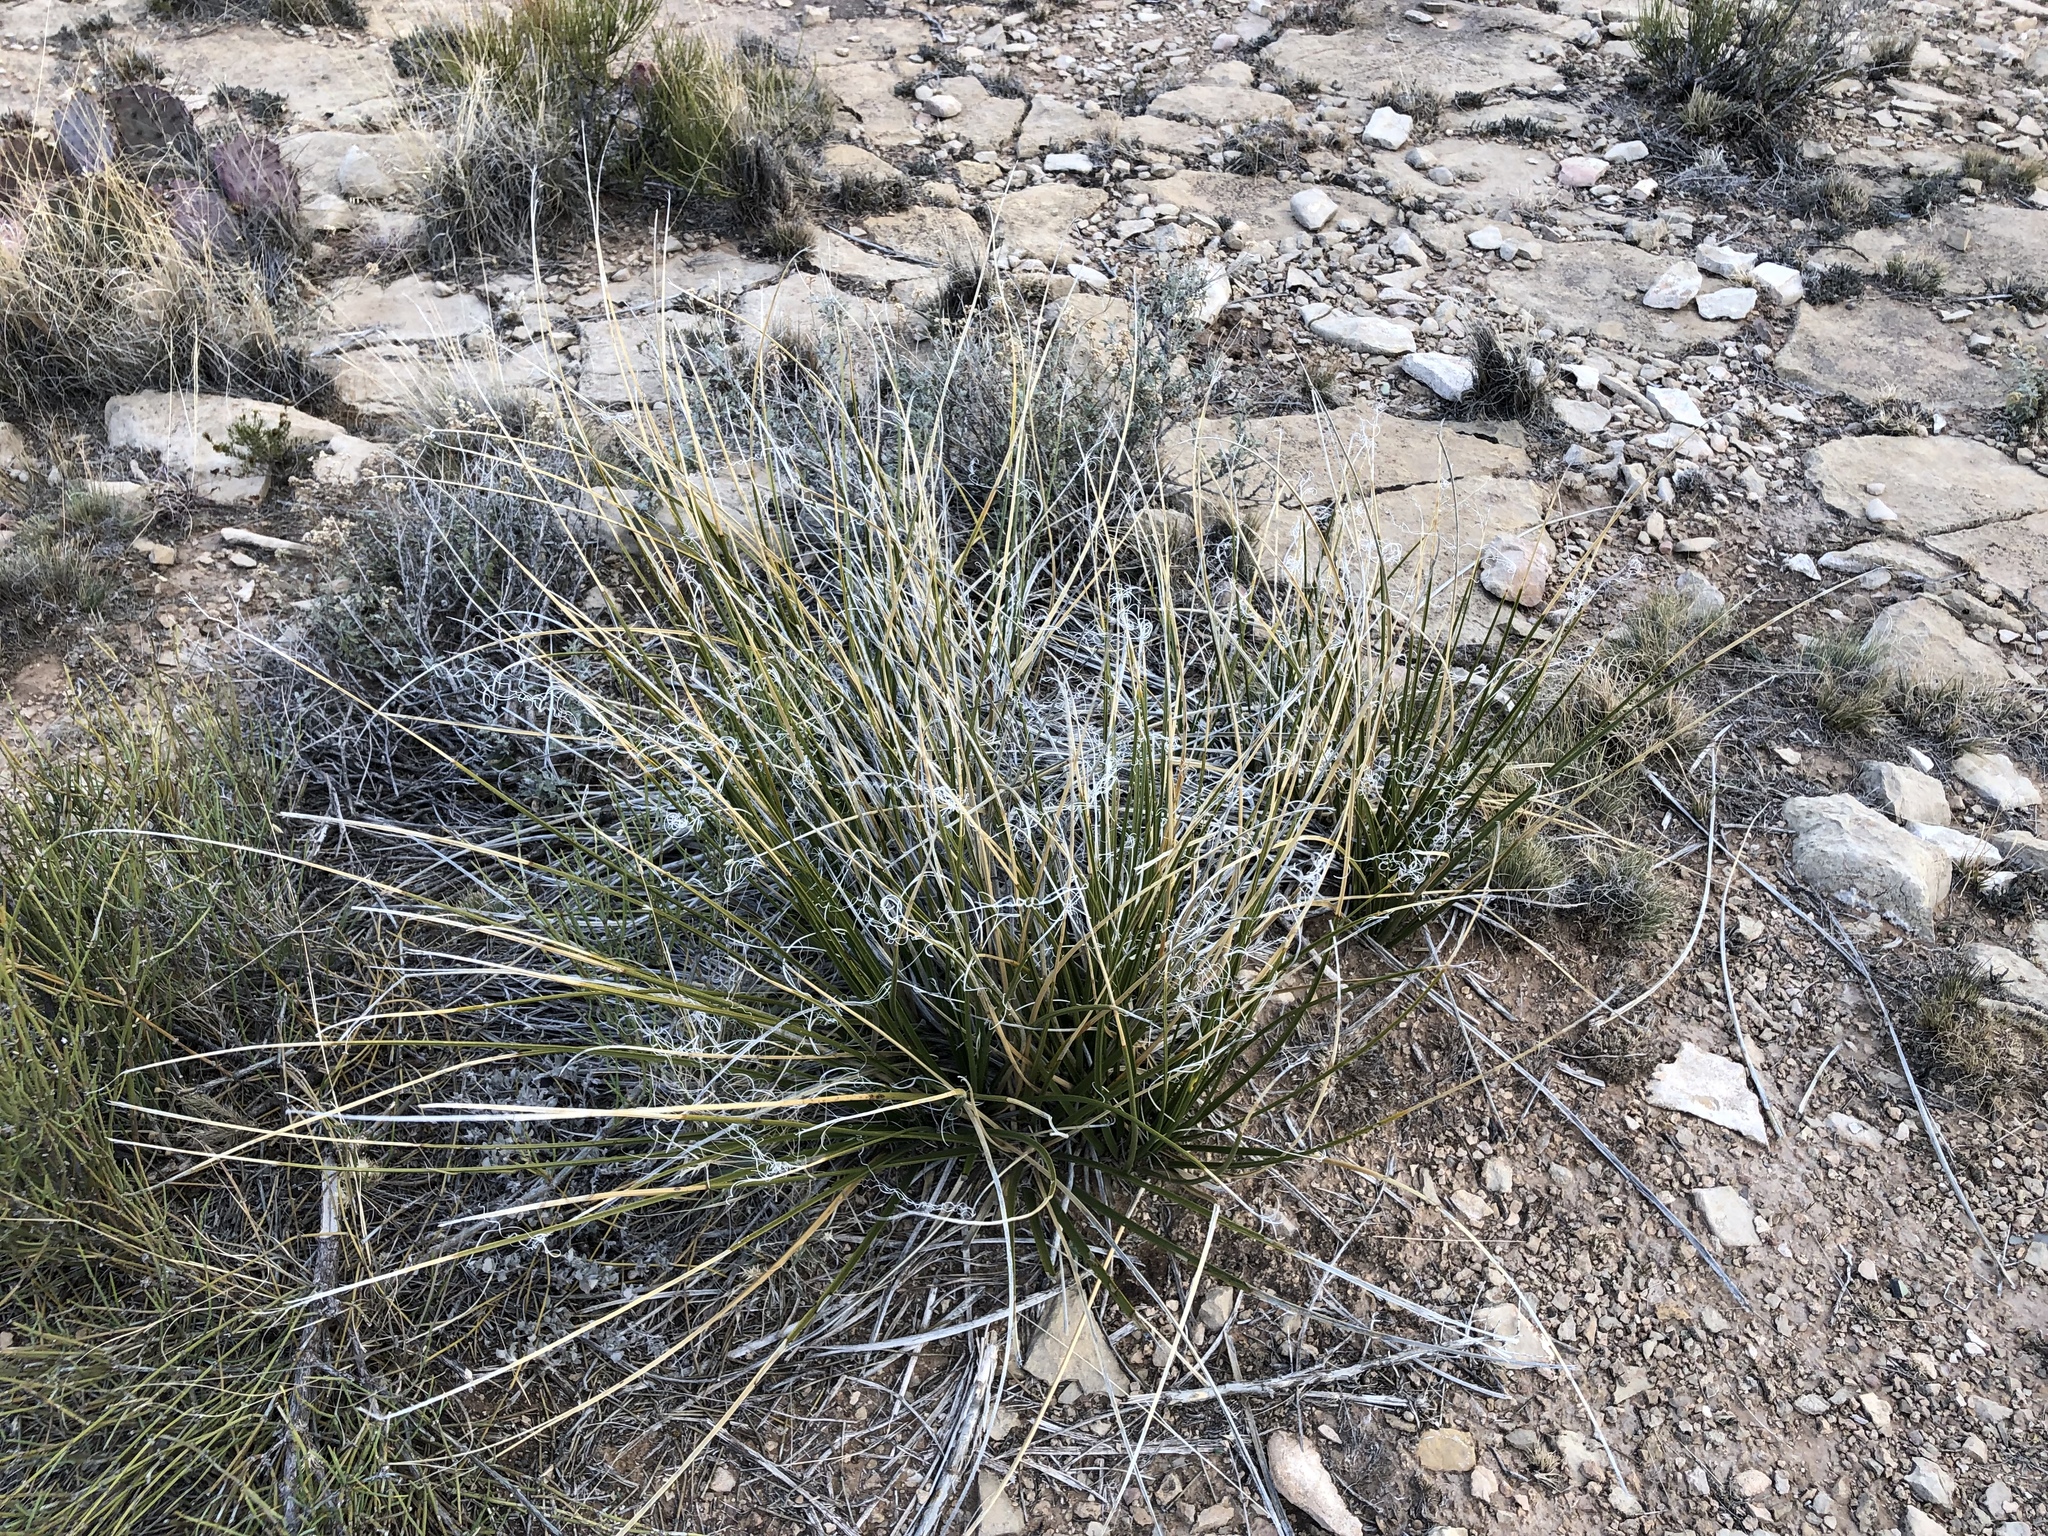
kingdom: Plantae
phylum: Tracheophyta
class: Liliopsida
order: Asparagales
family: Asparagaceae
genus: Nolina
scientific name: Nolina texana
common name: Texas sacahuiste
